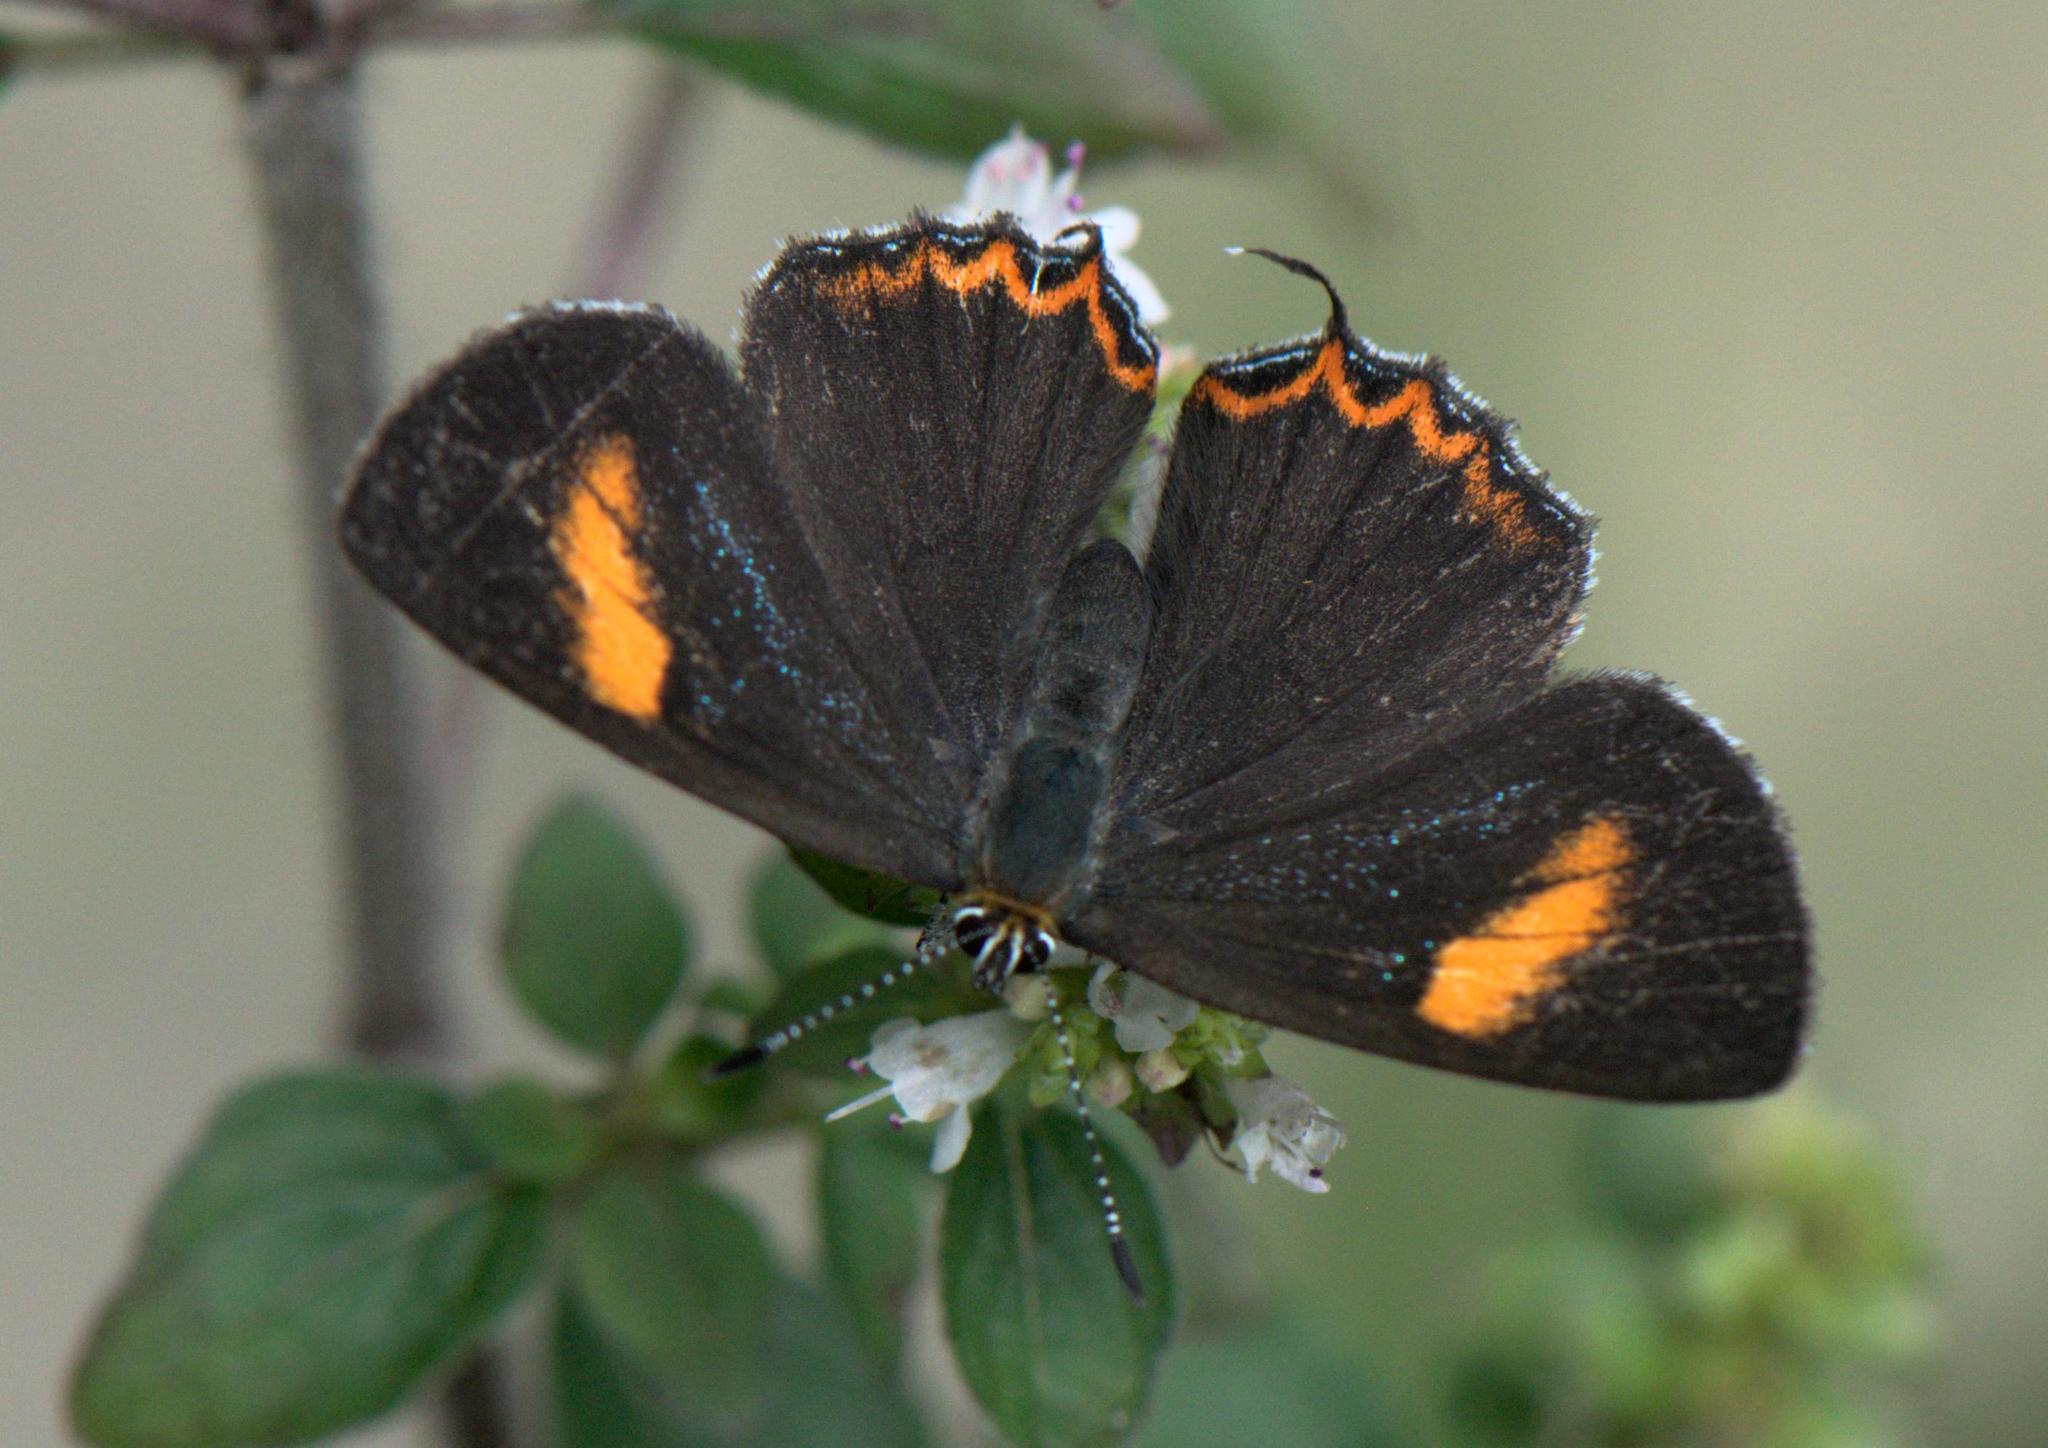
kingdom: Animalia
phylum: Arthropoda
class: Insecta
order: Lepidoptera
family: Lycaenidae
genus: Heliophorus
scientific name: Heliophorus
